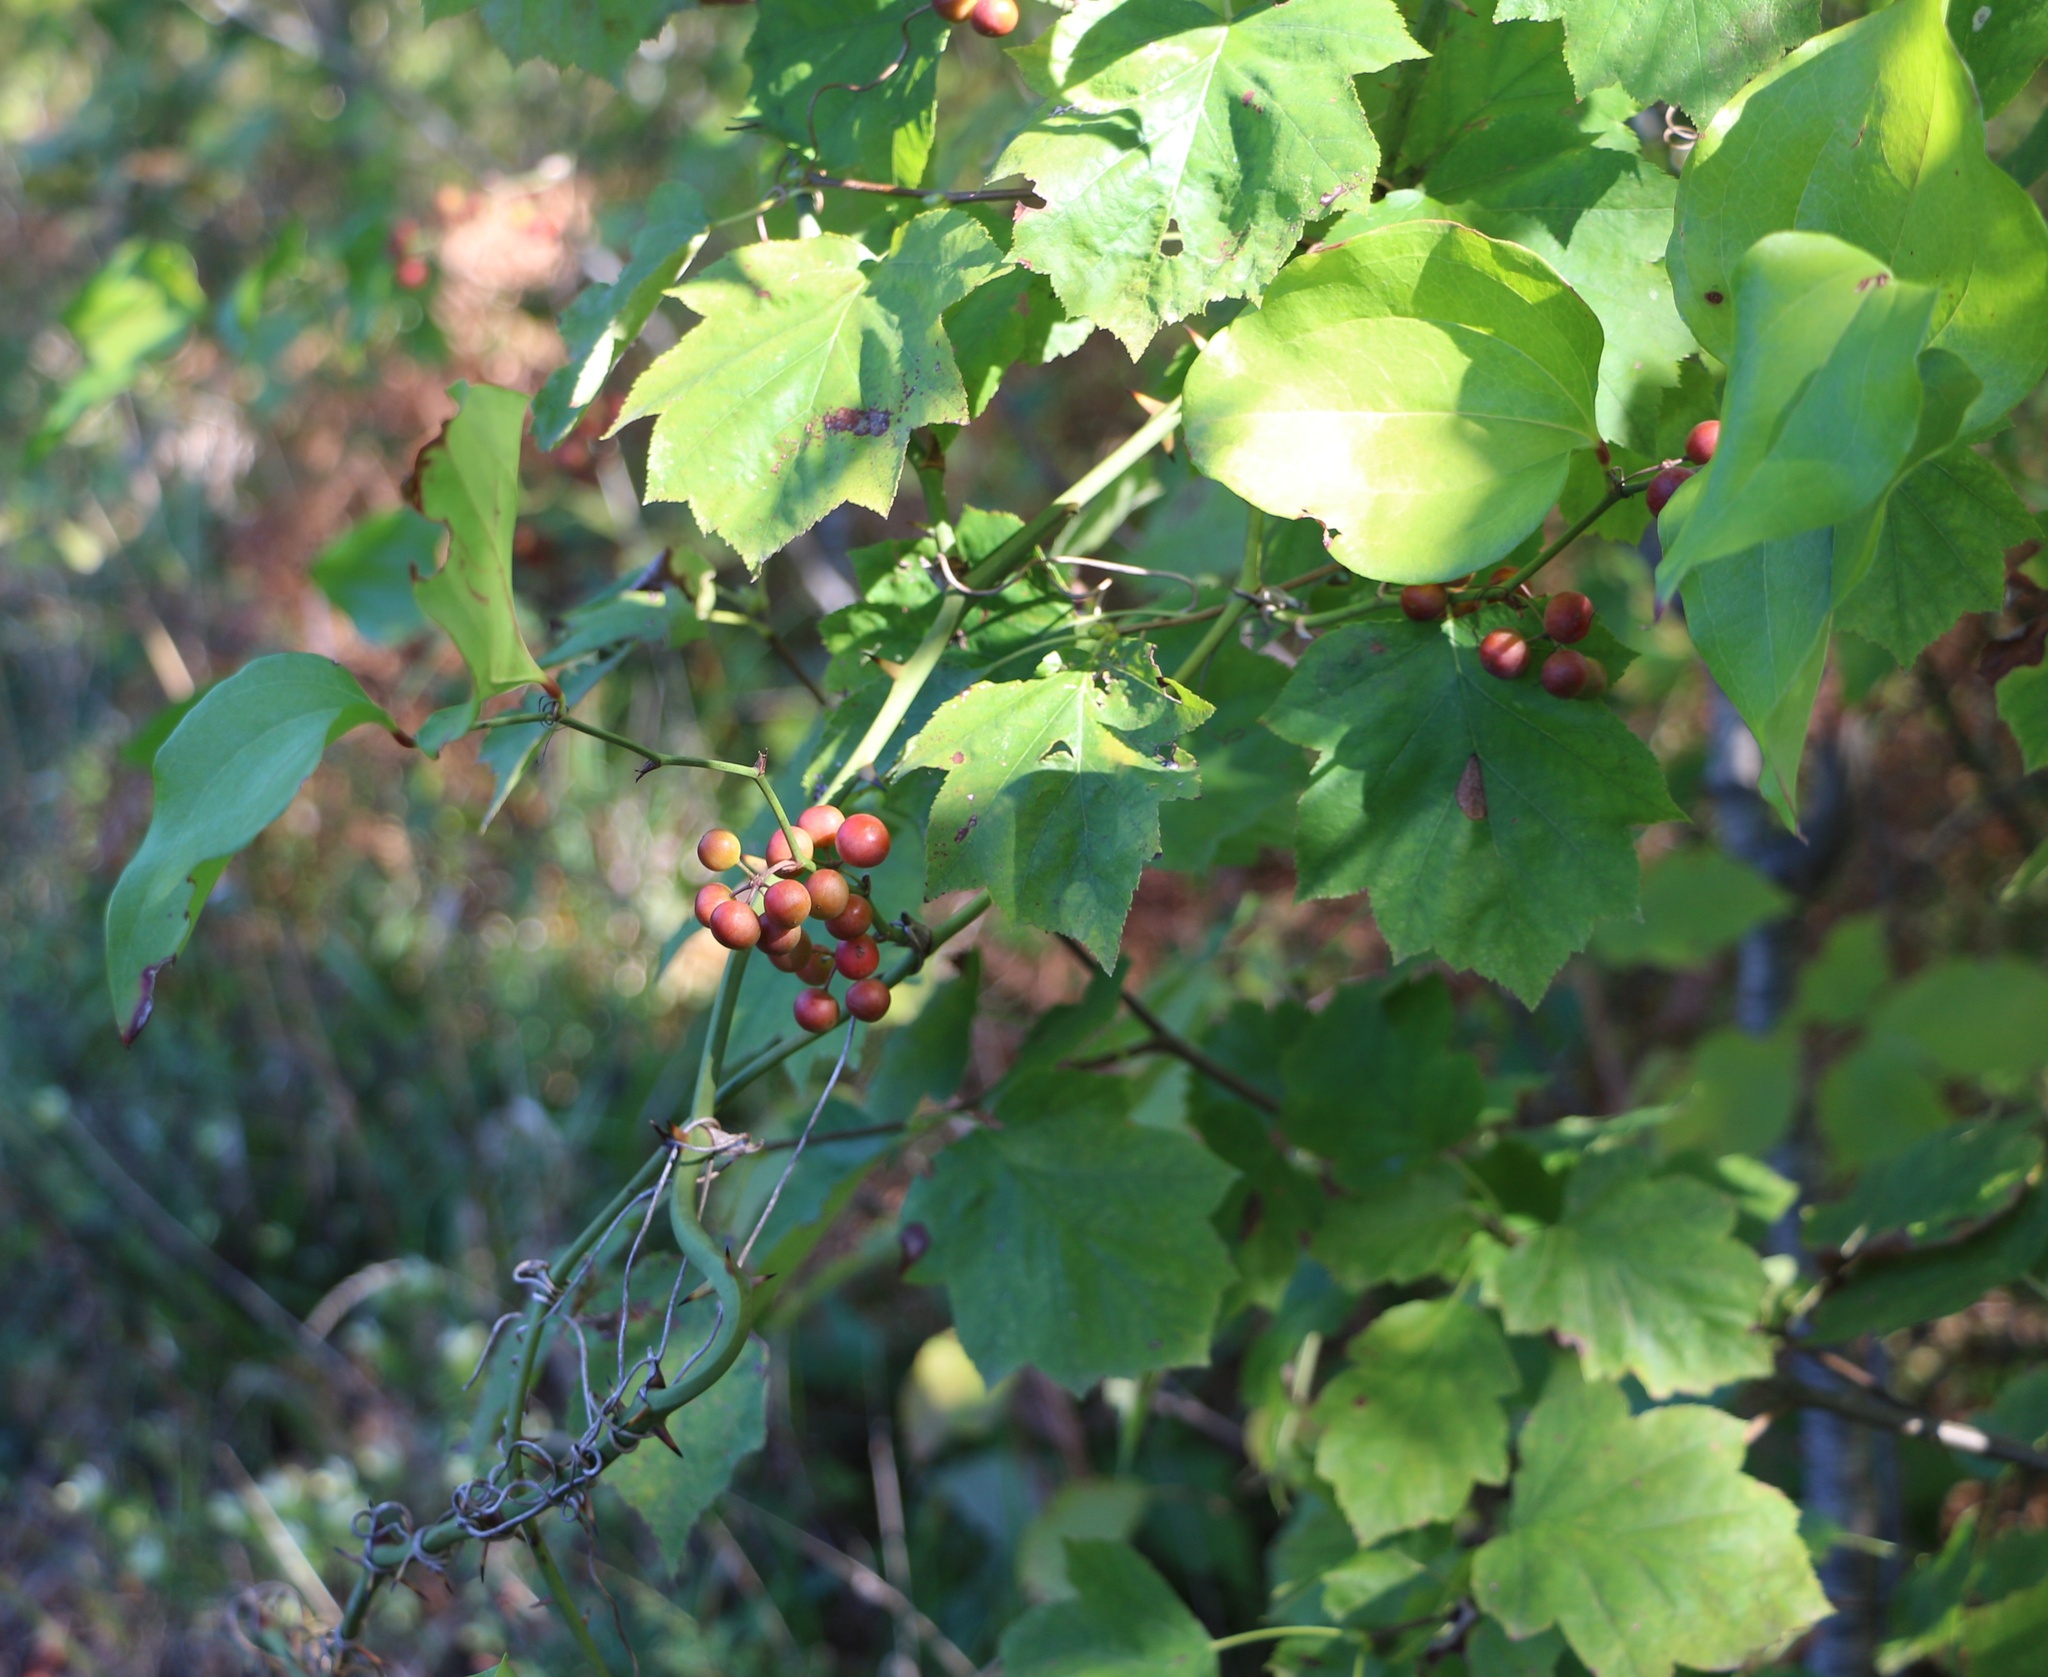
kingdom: Plantae
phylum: Tracheophyta
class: Liliopsida
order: Liliales
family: Smilacaceae
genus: Smilax
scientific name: Smilax excelsa
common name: Larger smilax
